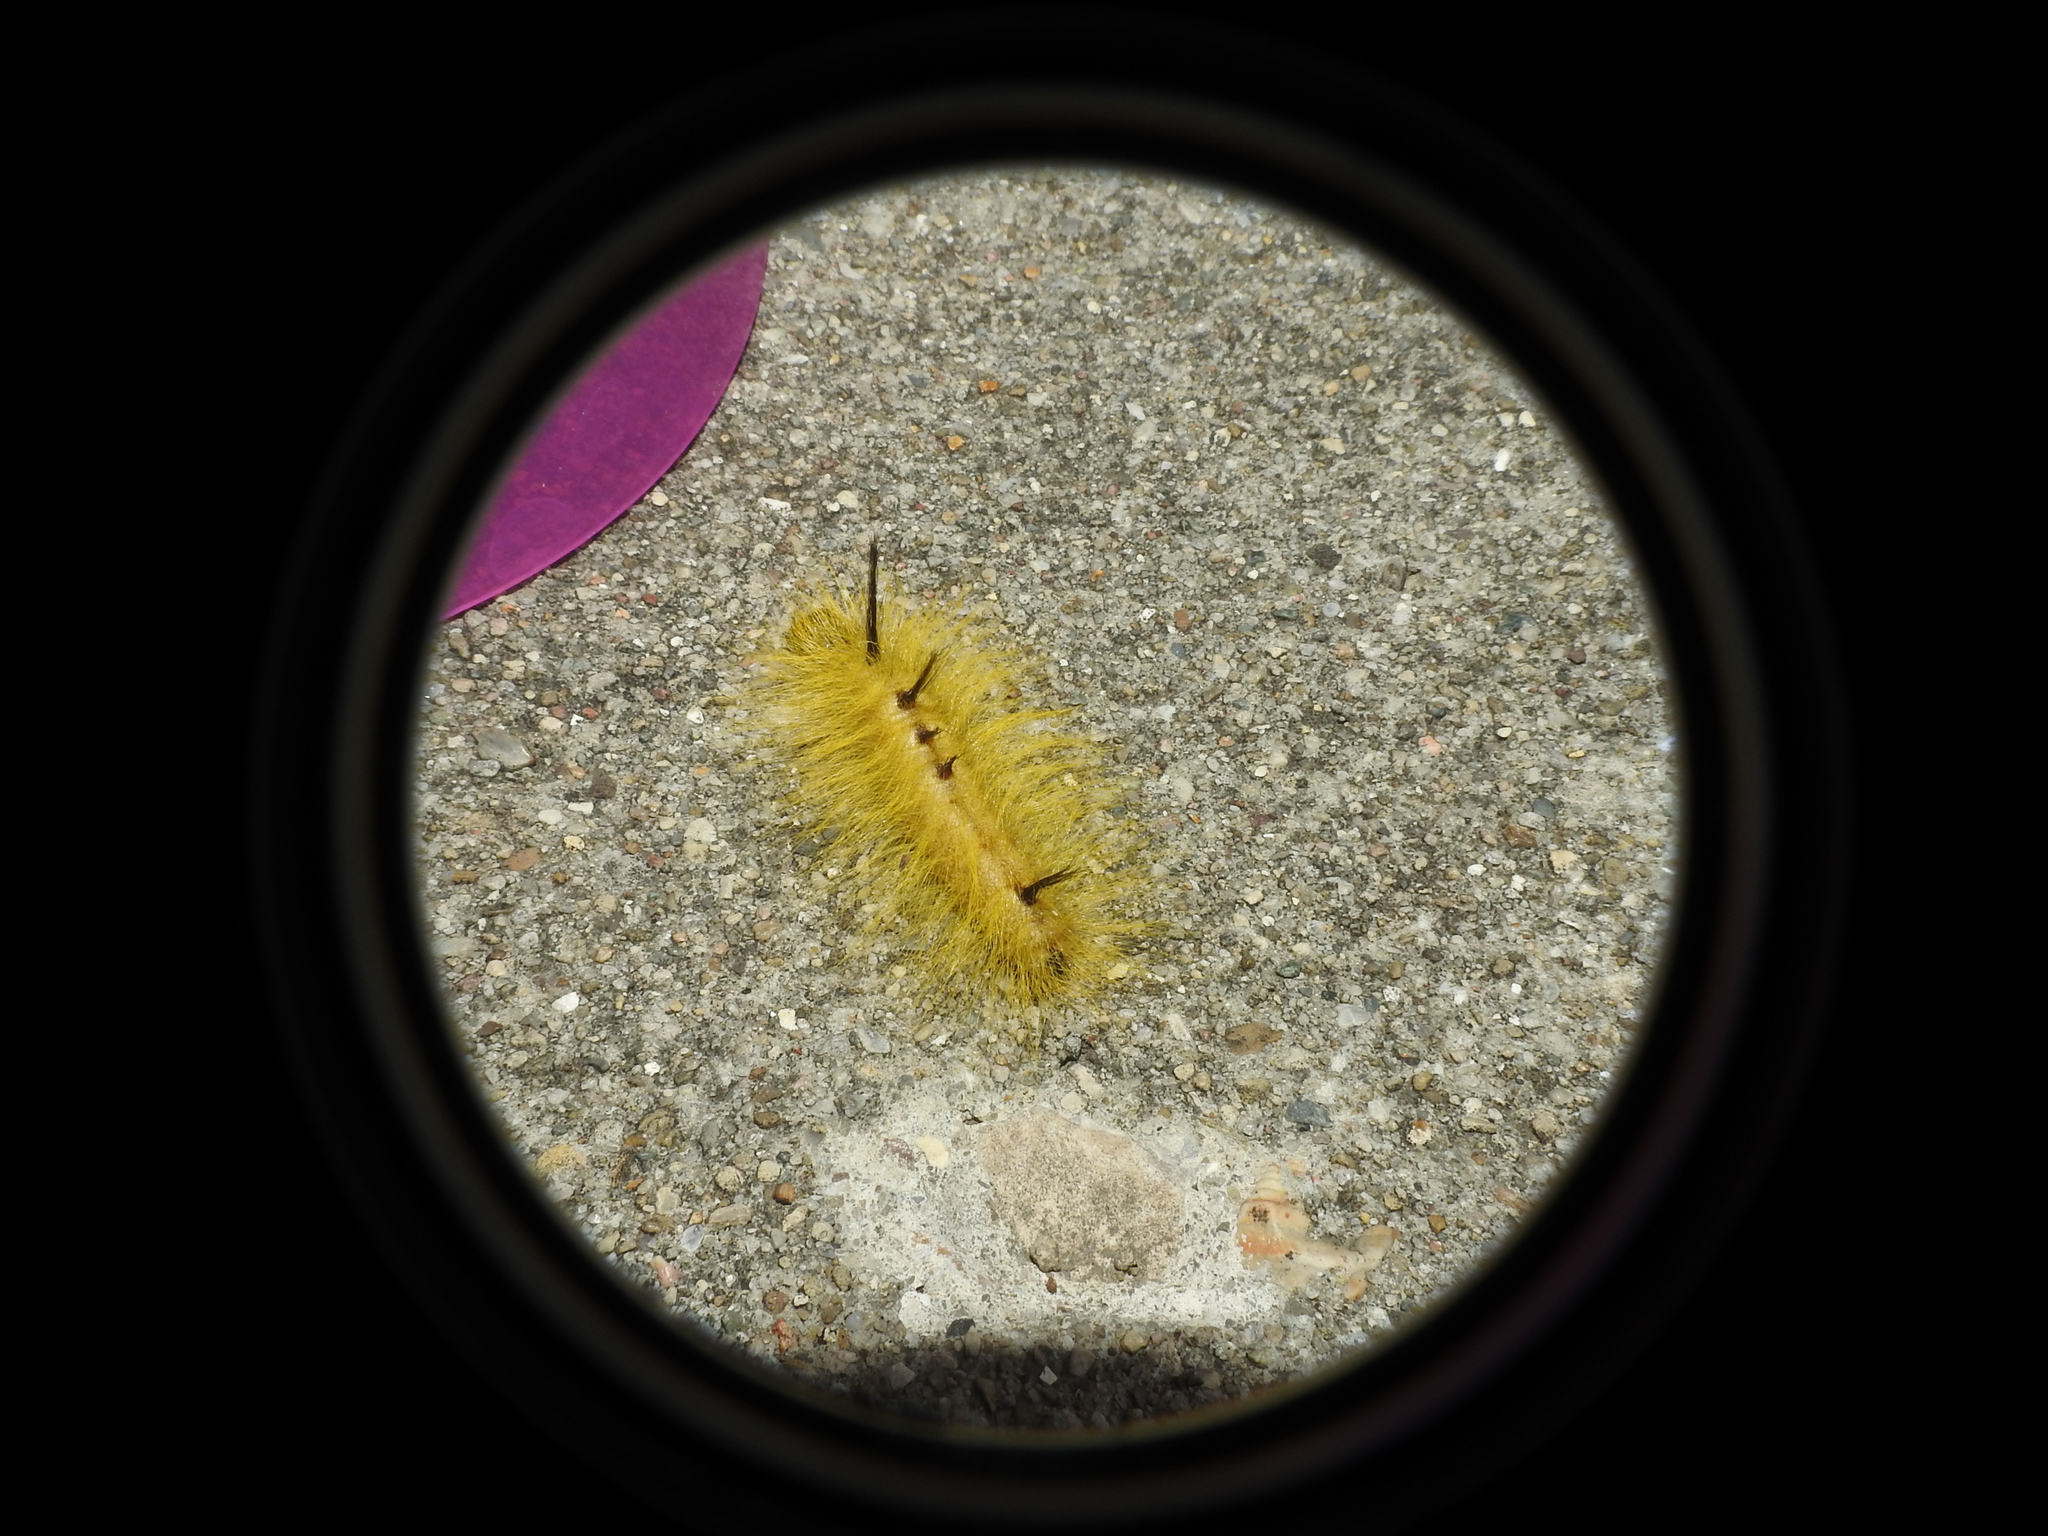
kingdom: Animalia
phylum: Arthropoda
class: Insecta
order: Lepidoptera
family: Noctuidae
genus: Acronicta
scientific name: Acronicta lepusculina
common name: Cottonwood dagger
